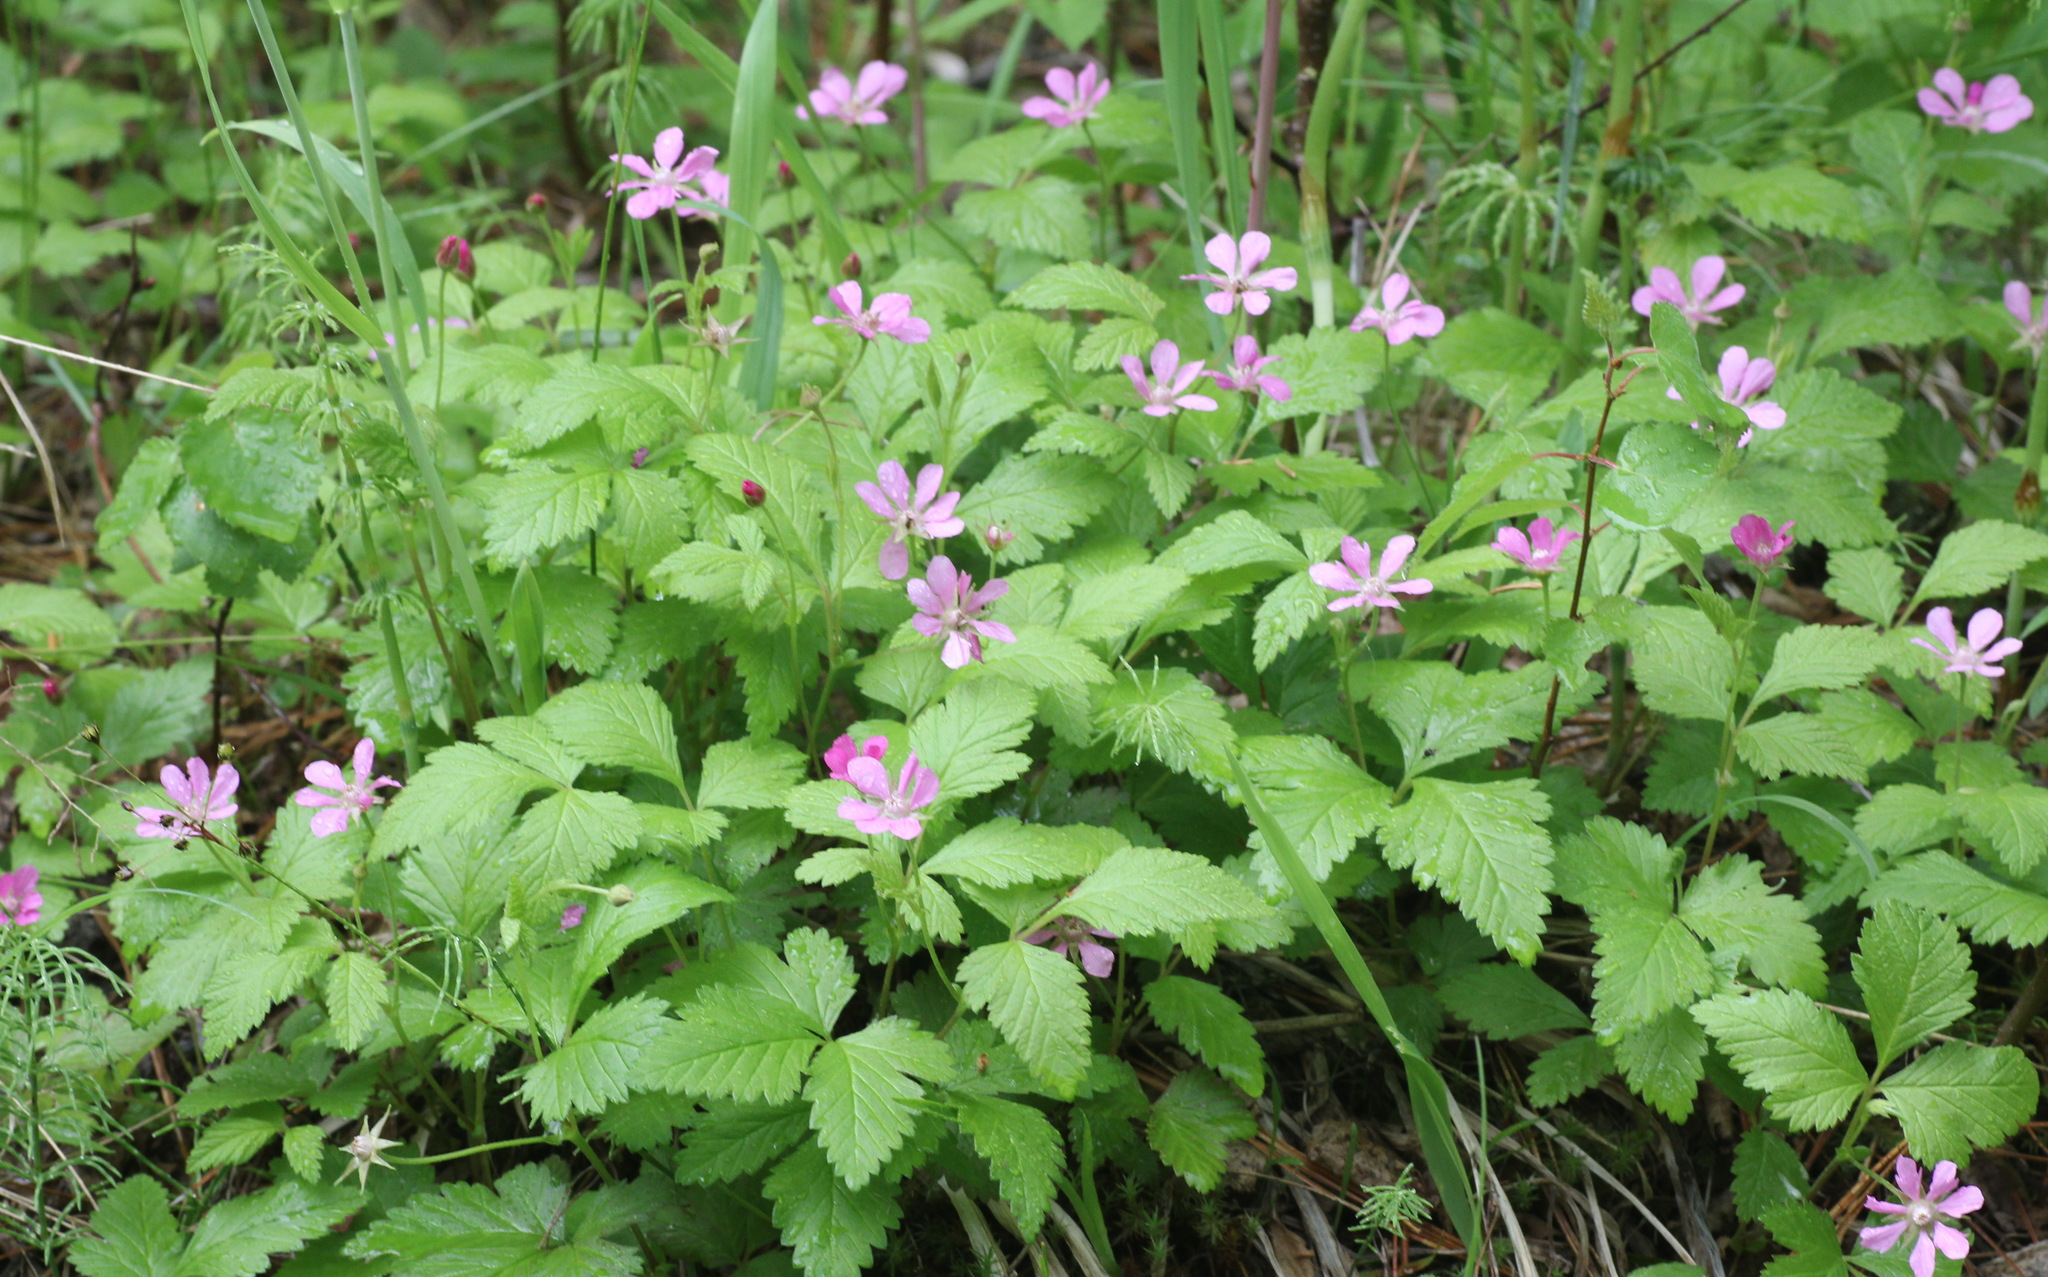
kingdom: Plantae
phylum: Tracheophyta
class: Magnoliopsida
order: Rosales
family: Rosaceae
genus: Rubus
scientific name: Rubus arcticus
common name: Arctic bramble
